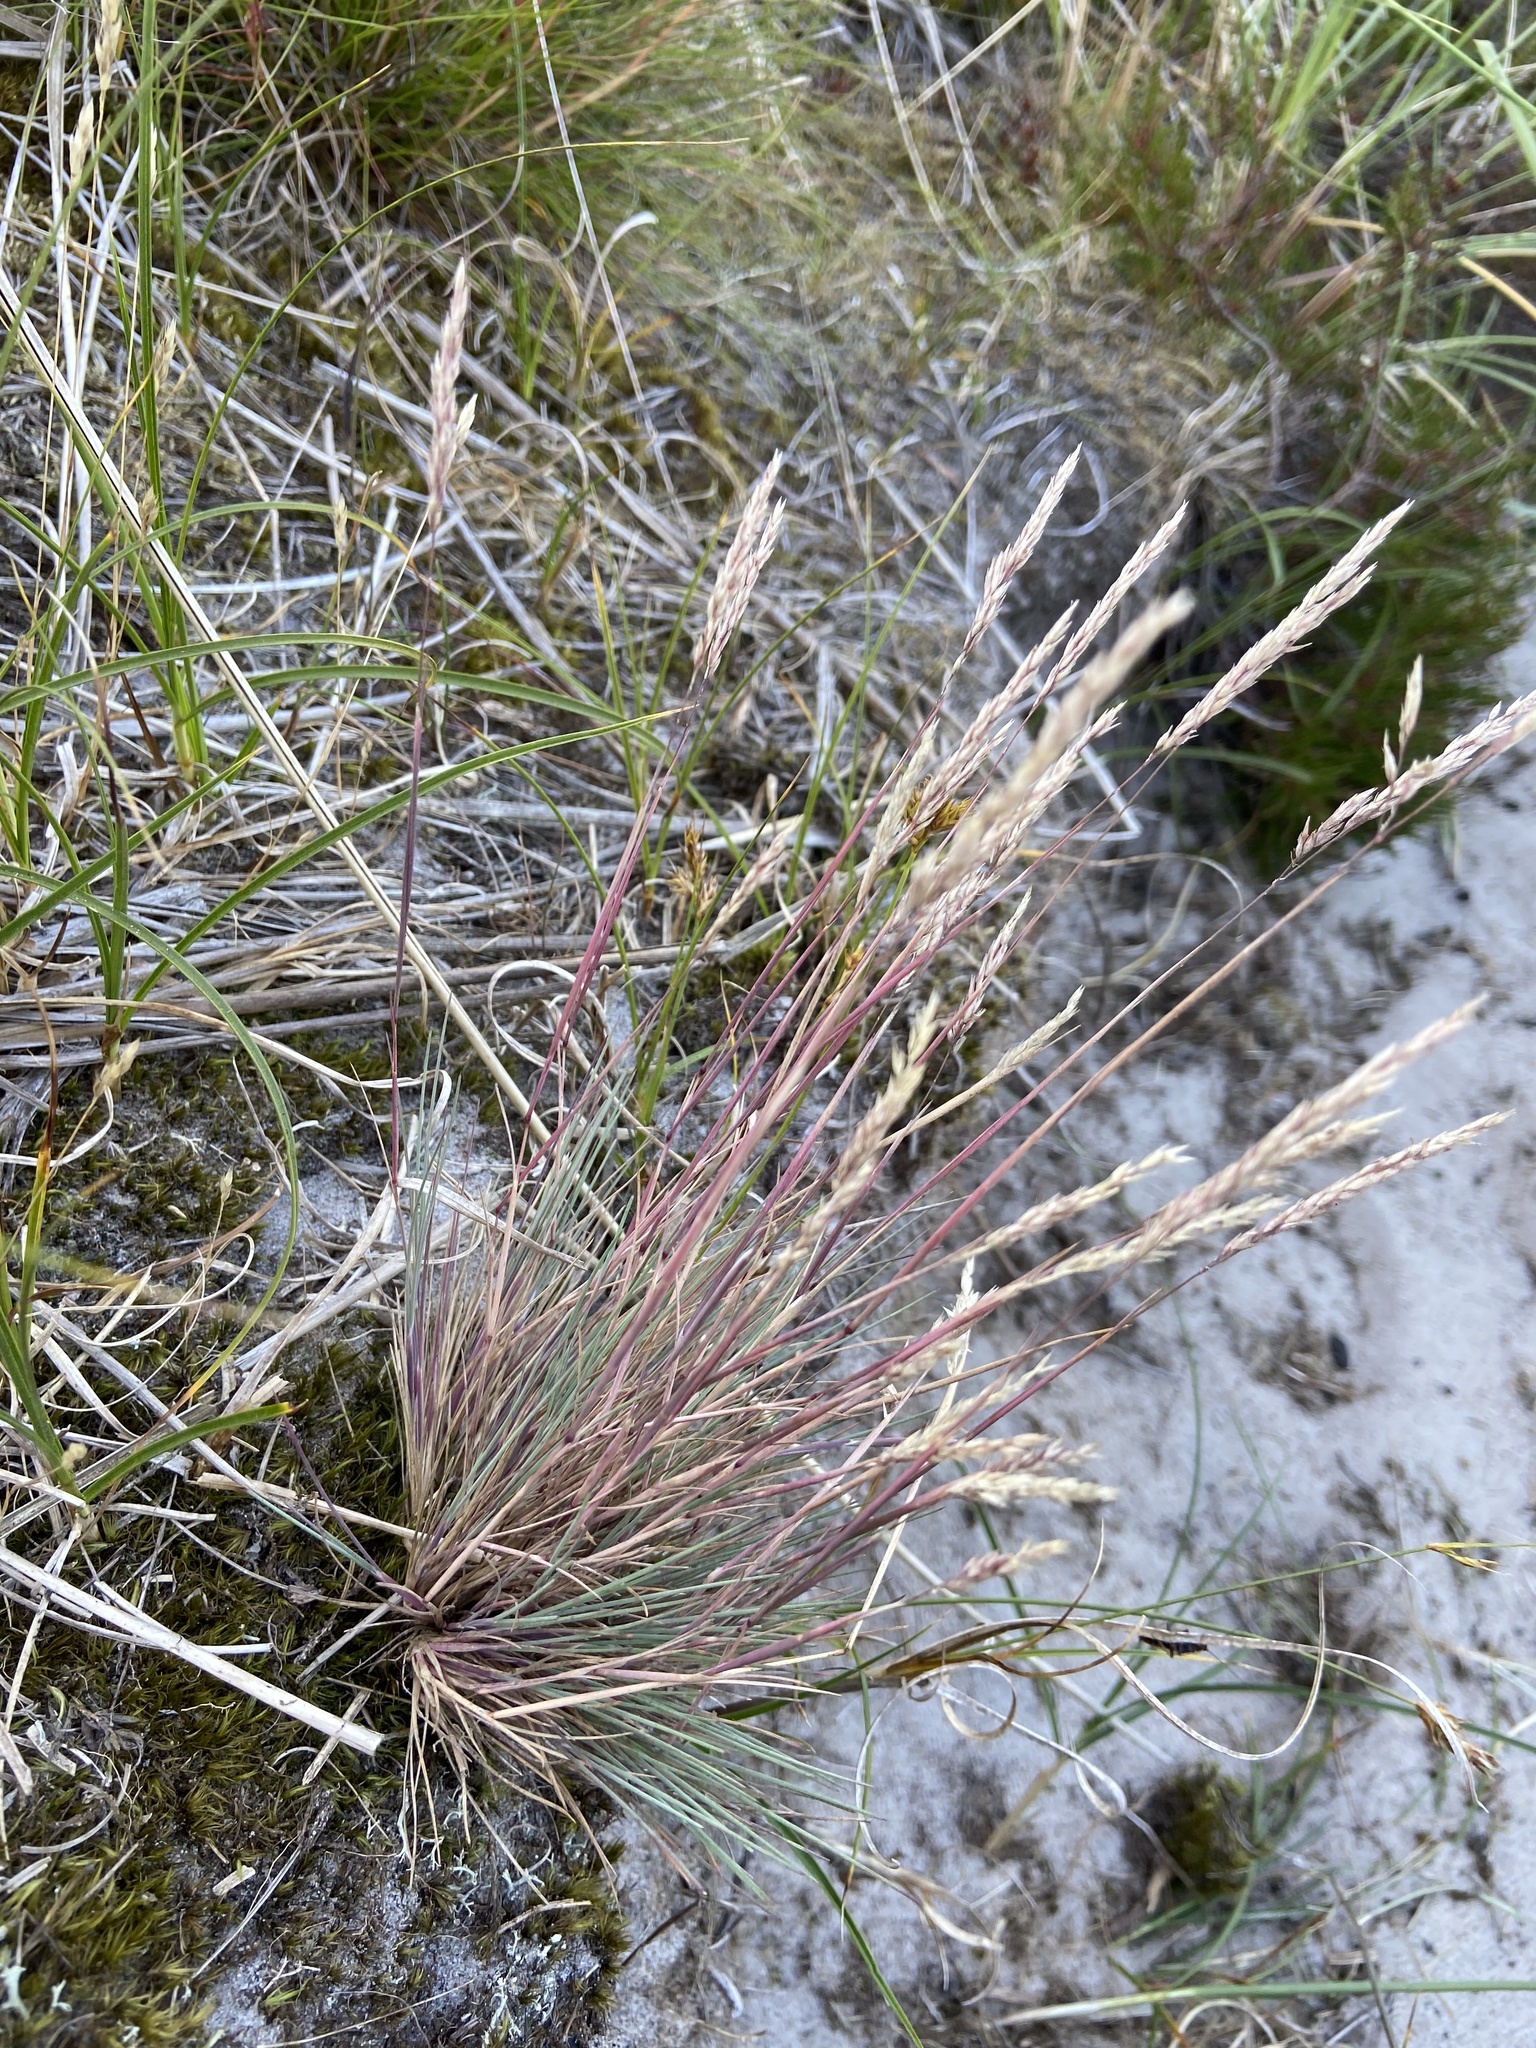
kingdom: Plantae
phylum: Tracheophyta
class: Liliopsida
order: Poales
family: Poaceae
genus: Corynephorus
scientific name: Corynephorus canescens
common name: Grey hair-grass
